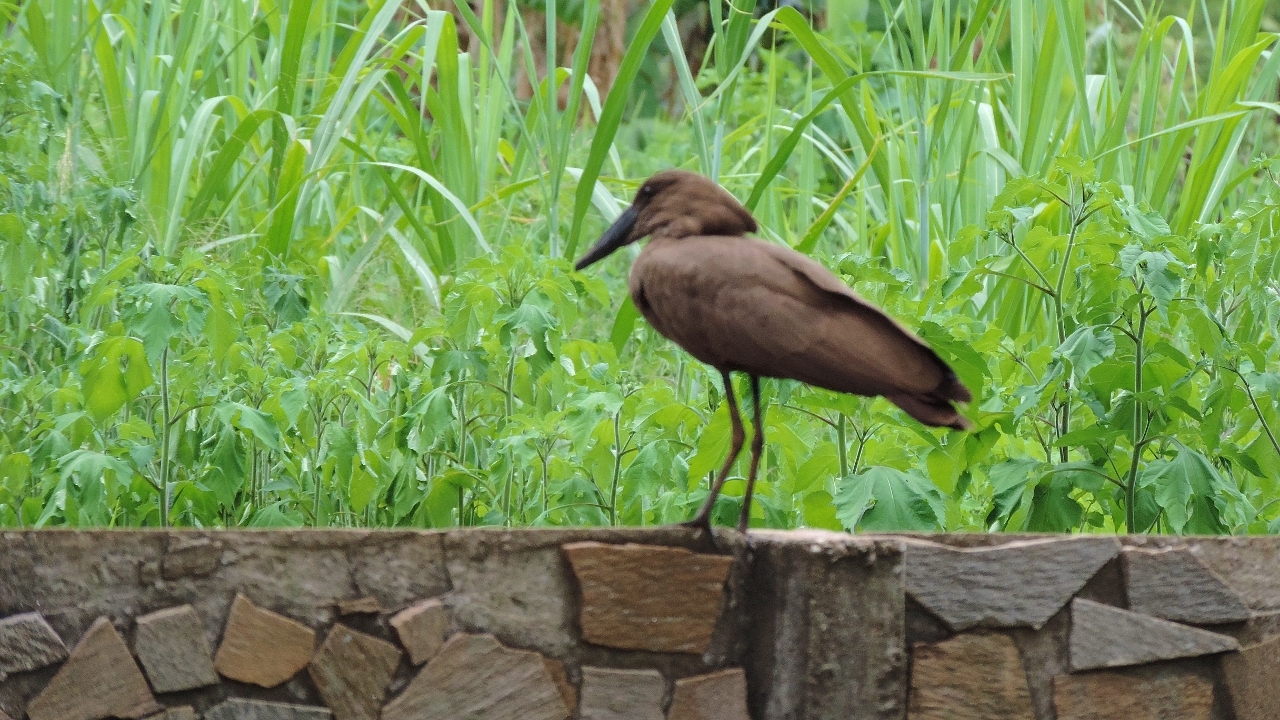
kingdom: Animalia
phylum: Chordata
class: Aves
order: Pelecaniformes
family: Scopidae
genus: Scopus
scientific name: Scopus umbretta
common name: Hamerkop
